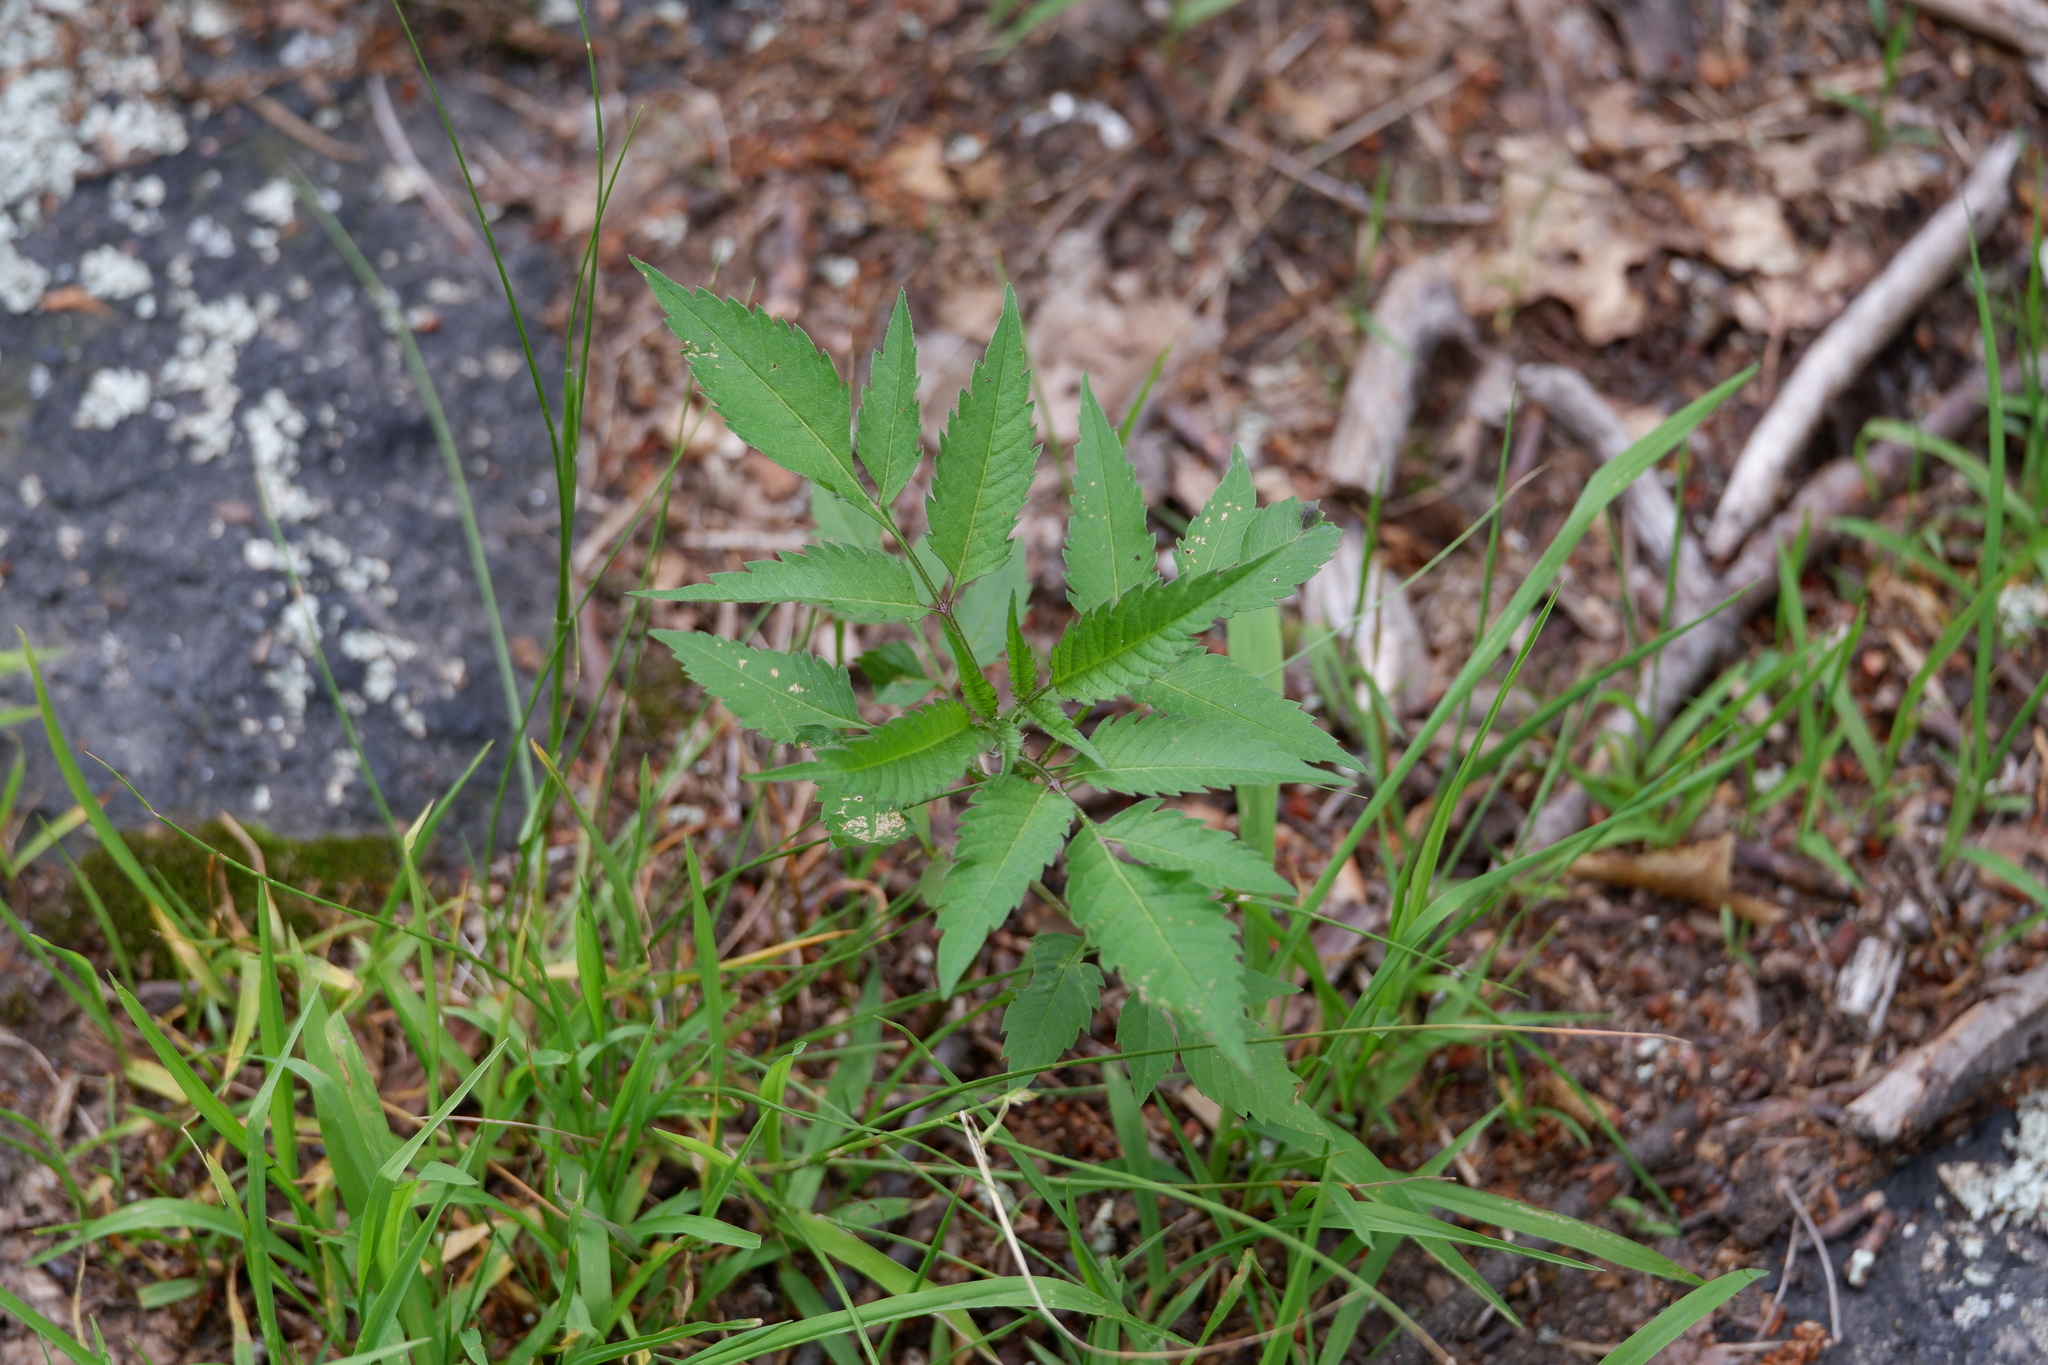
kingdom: Plantae
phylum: Tracheophyta
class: Magnoliopsida
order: Asterales
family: Asteraceae
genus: Bidens
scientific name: Bidens frondosa
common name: Beggarticks
